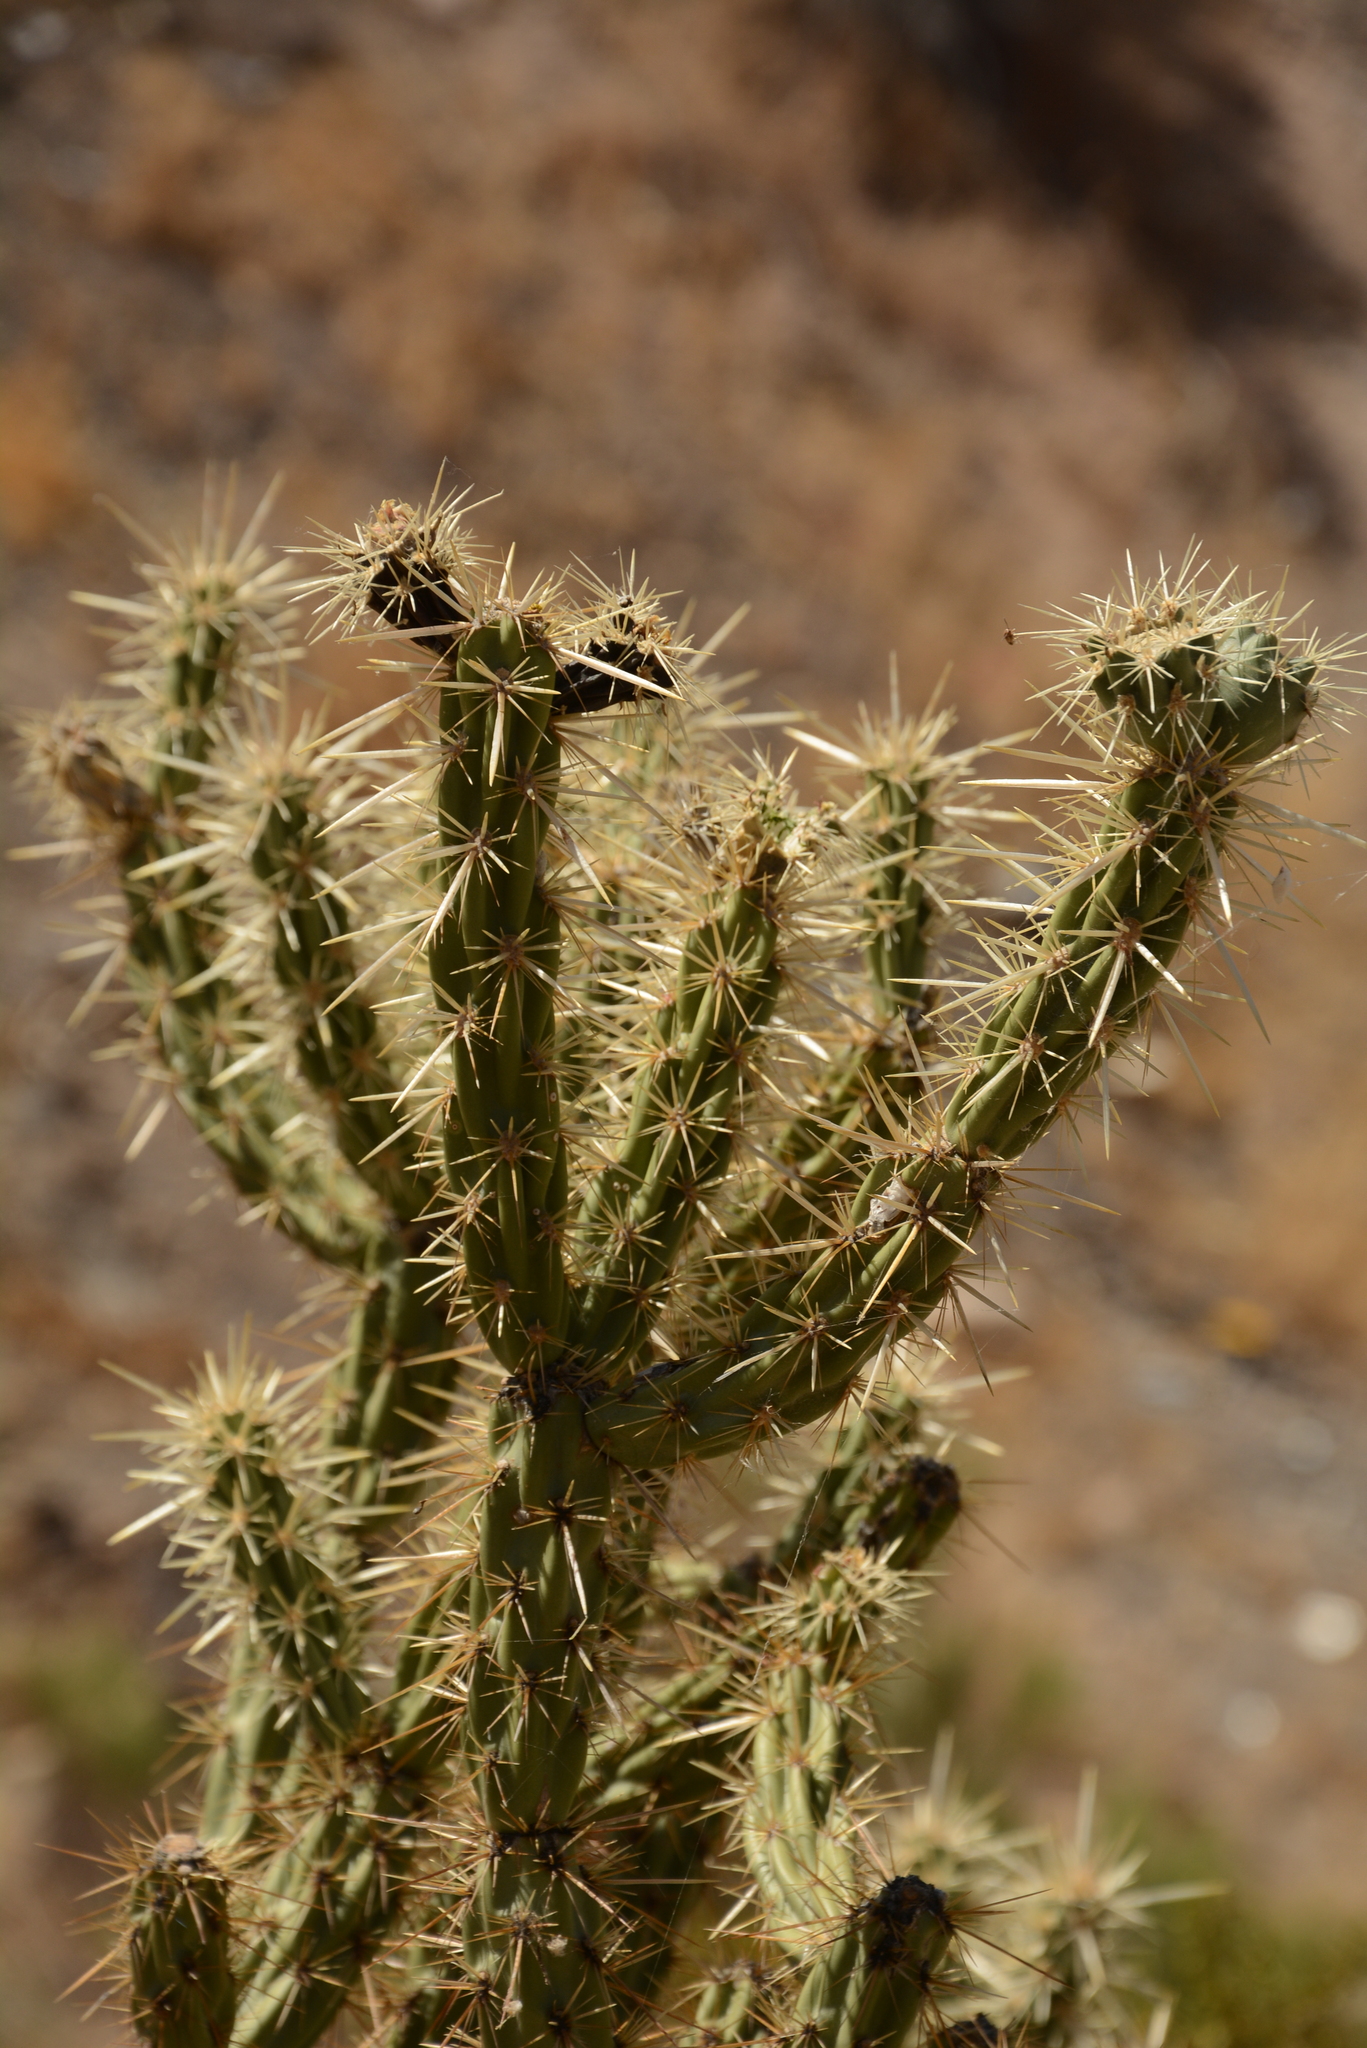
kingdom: Plantae
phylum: Tracheophyta
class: Magnoliopsida
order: Caryophyllales
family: Cactaceae
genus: Cylindropuntia
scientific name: Cylindropuntia acanthocarpa
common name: Buckhorn cholla
